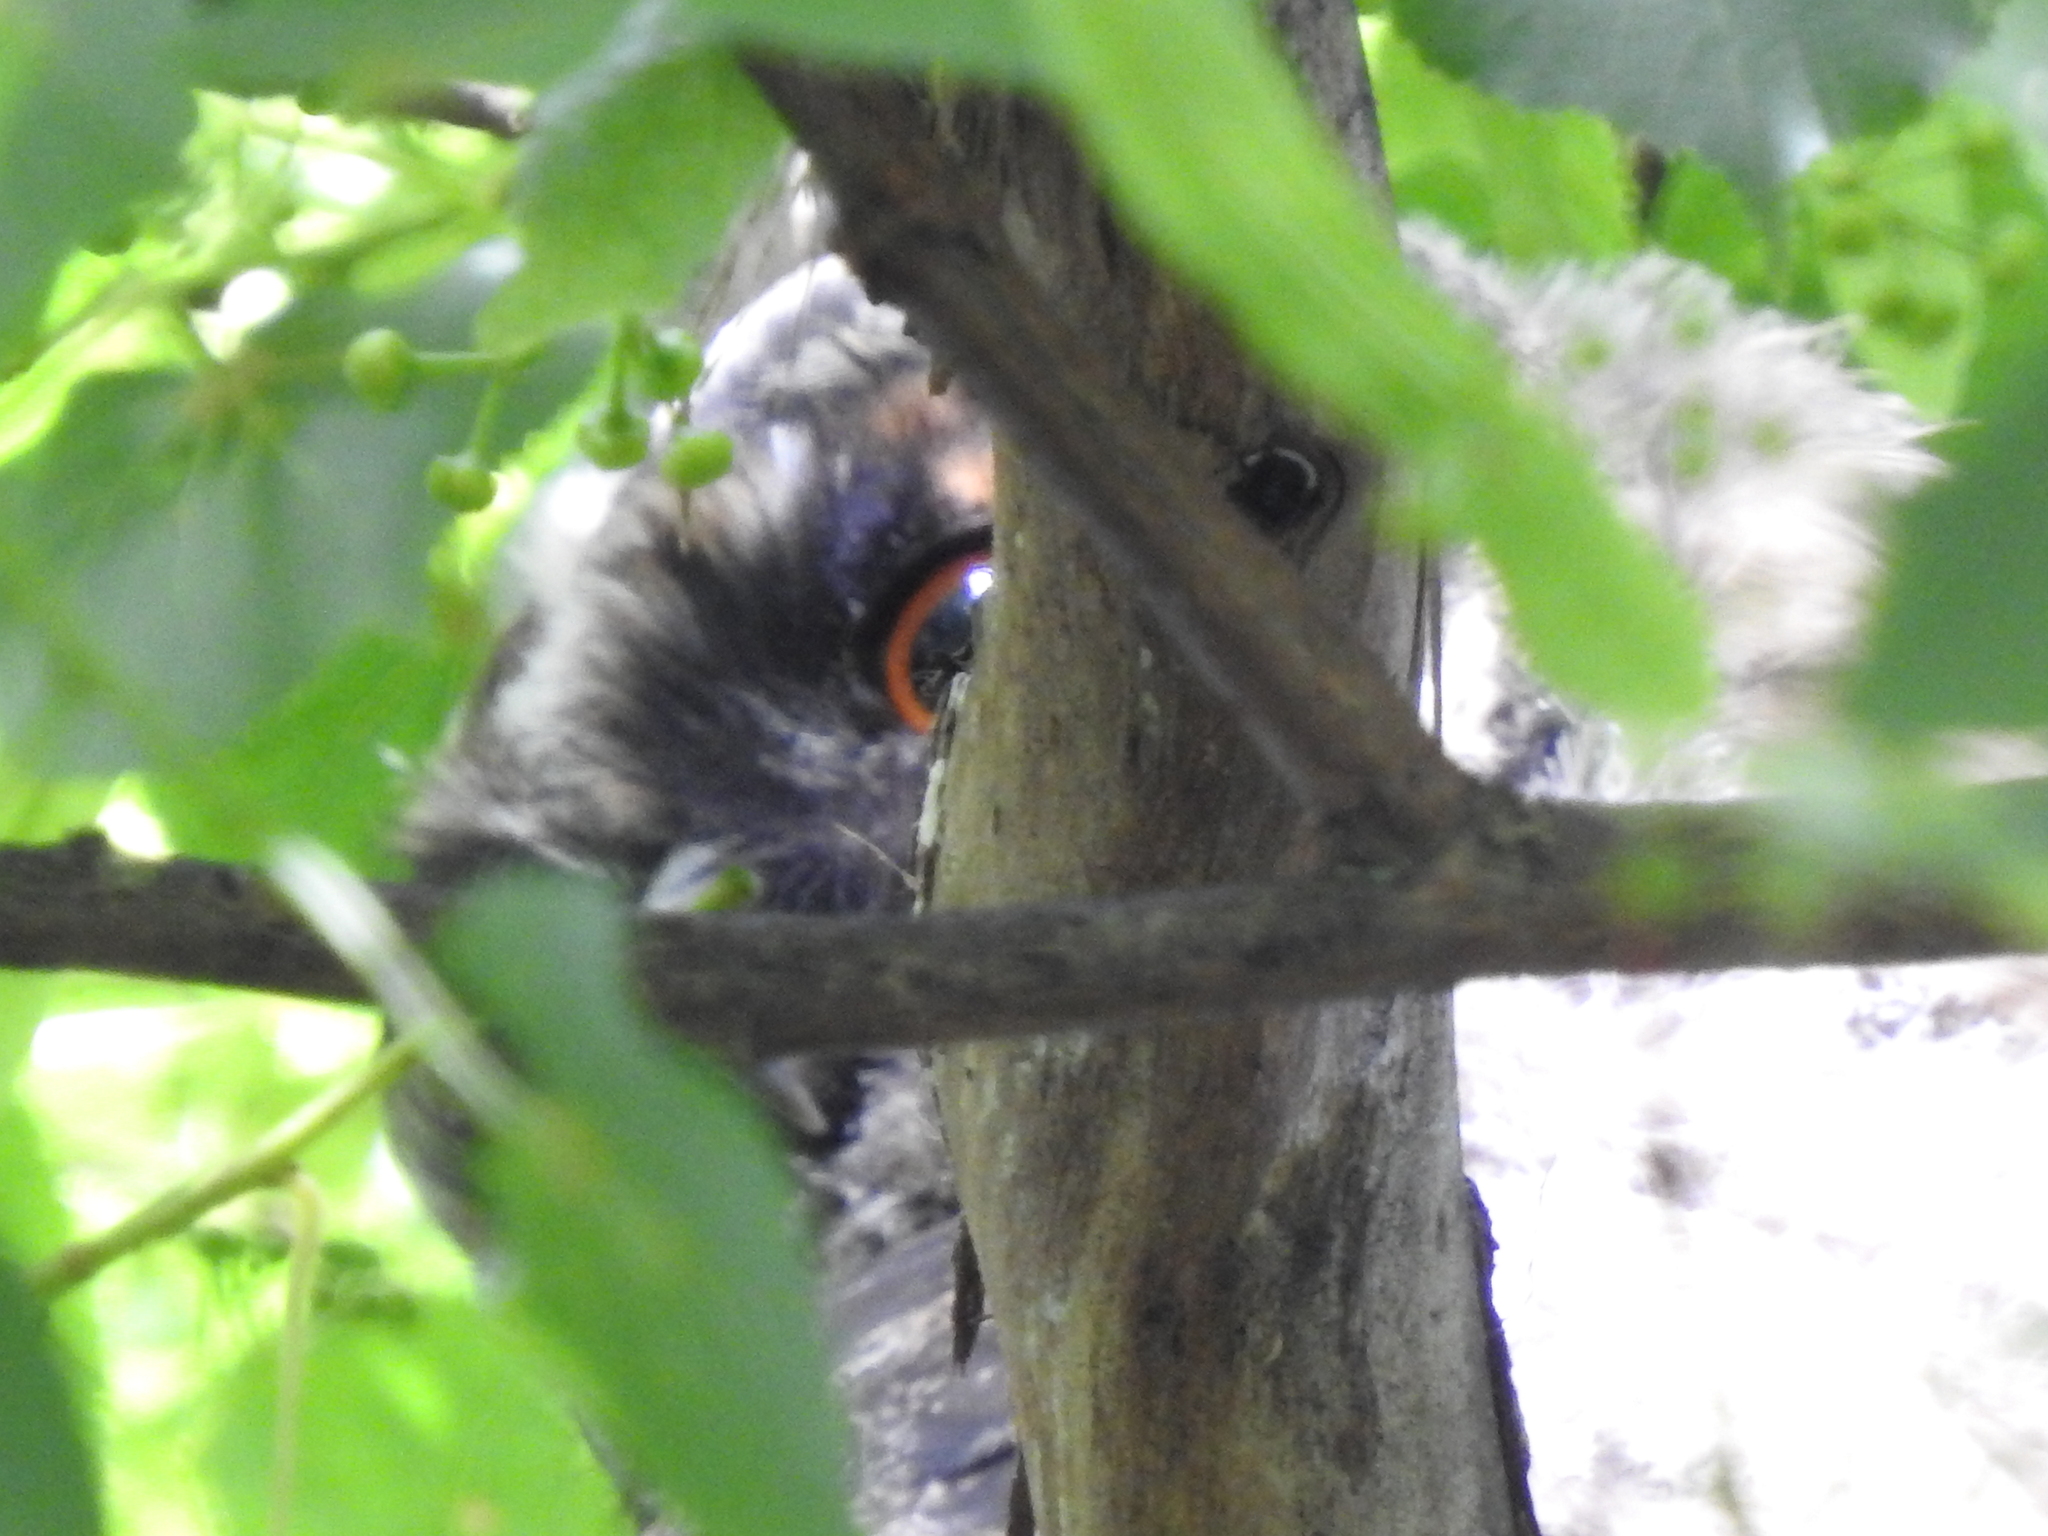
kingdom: Animalia
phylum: Chordata
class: Aves
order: Strigiformes
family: Strigidae
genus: Asio
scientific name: Asio otus
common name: Long-eared owl
